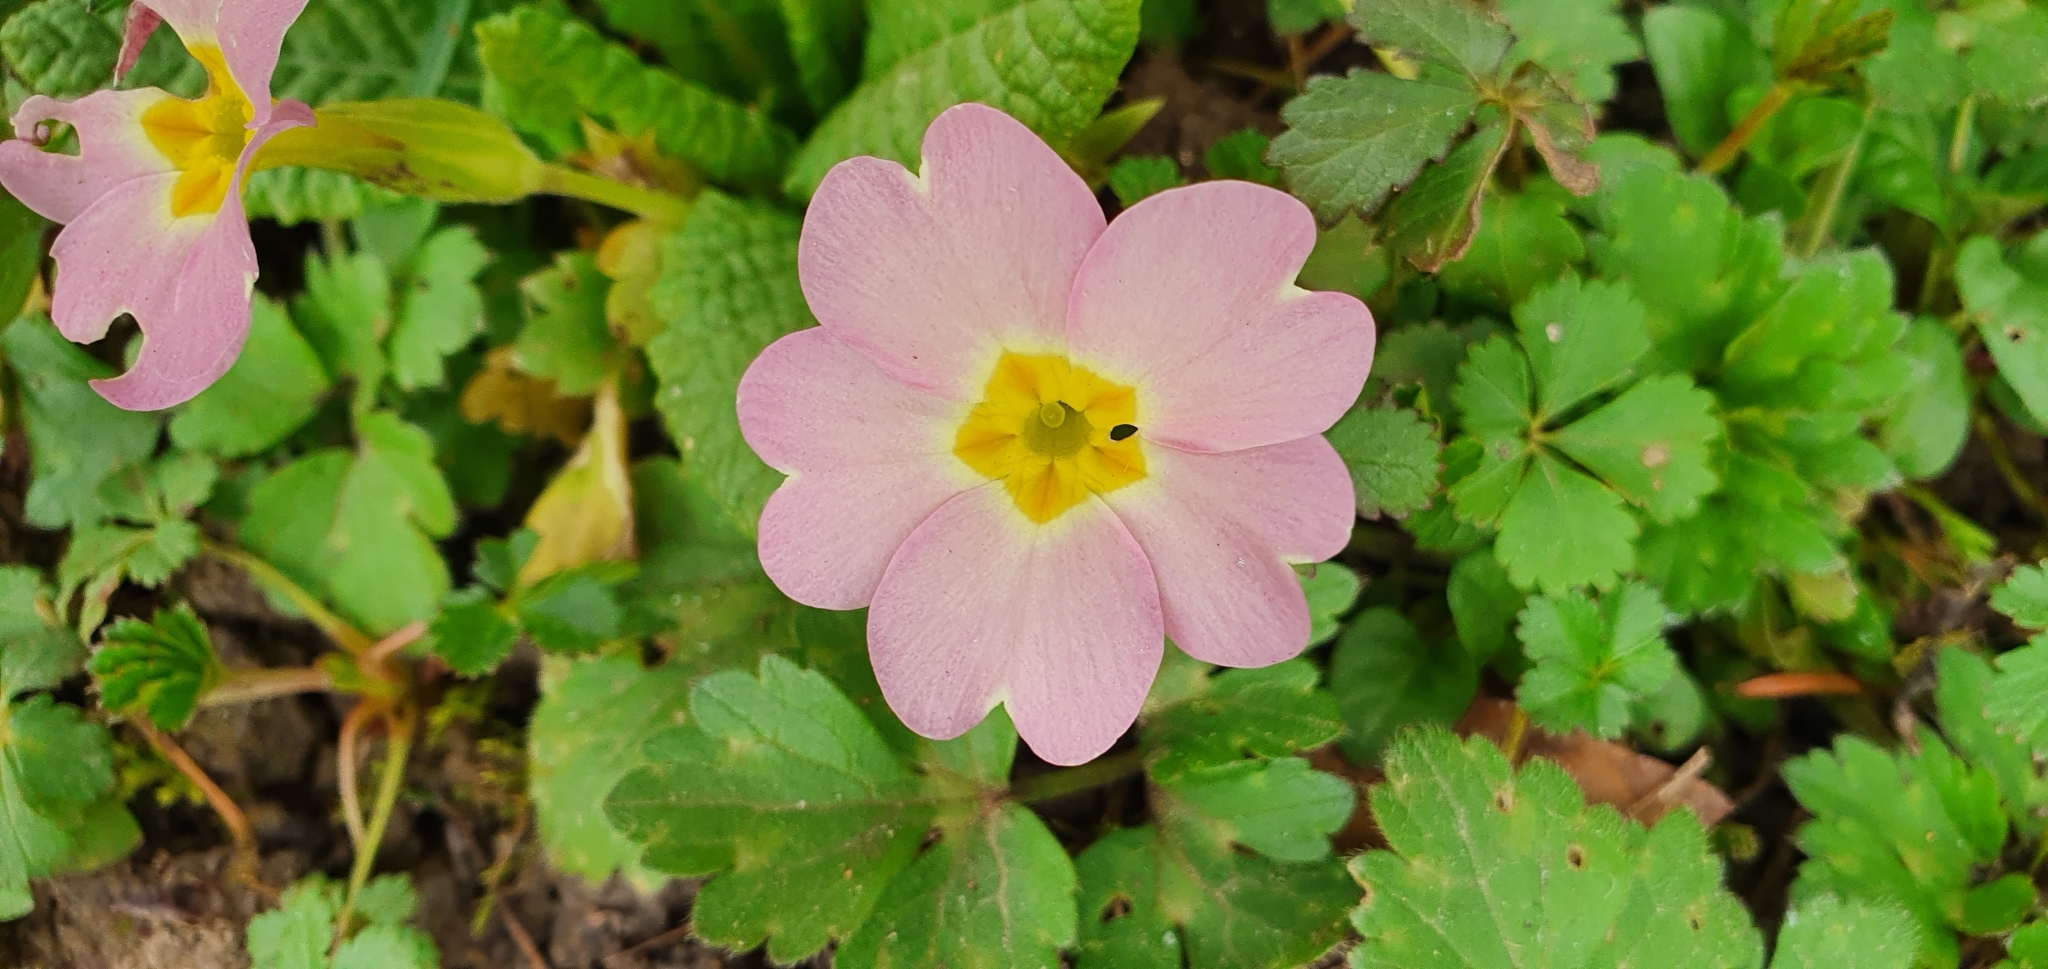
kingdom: Plantae
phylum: Tracheophyta
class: Magnoliopsida
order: Ericales
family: Primulaceae
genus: Primula
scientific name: Primula vulgaris
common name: Primrose
